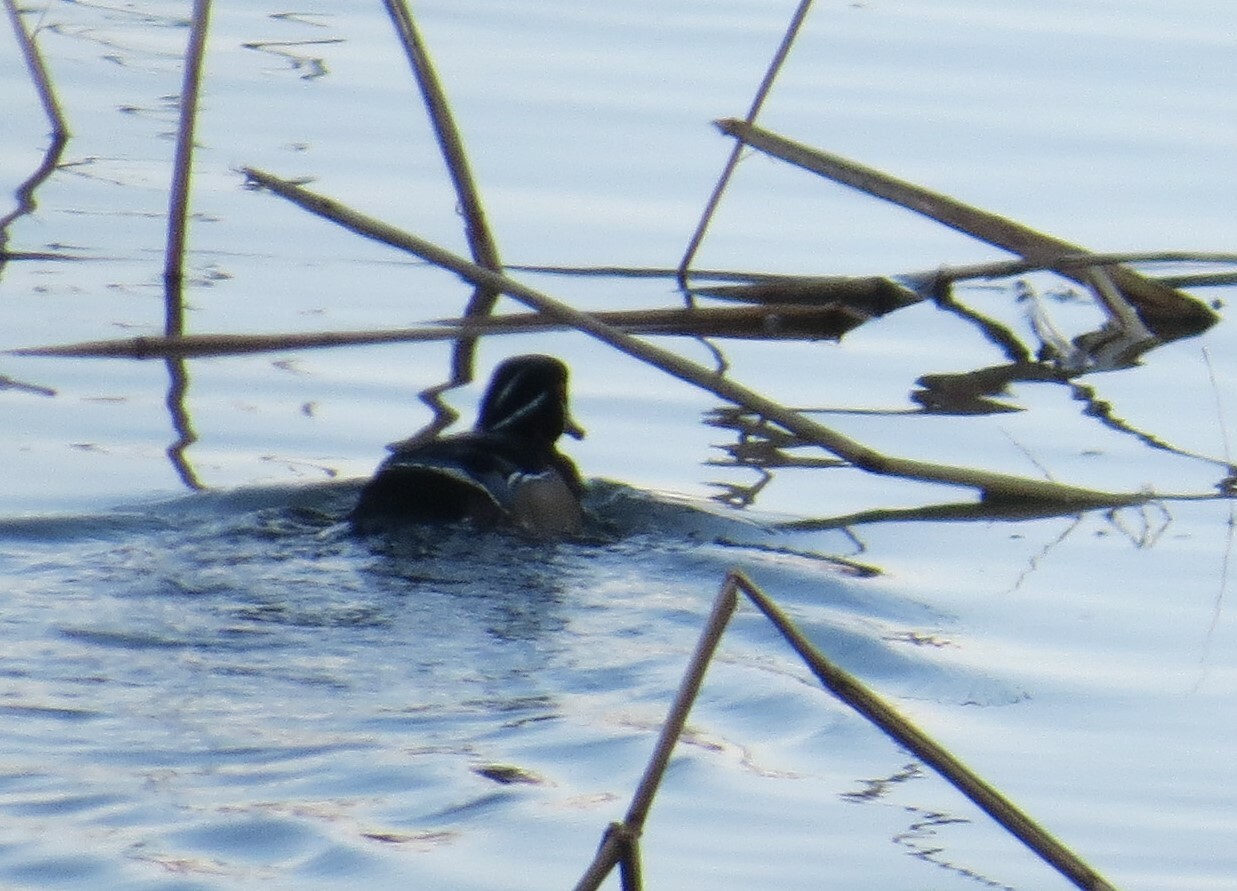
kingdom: Animalia
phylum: Chordata
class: Aves
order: Anseriformes
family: Anatidae
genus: Aix
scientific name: Aix sponsa
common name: Wood duck
